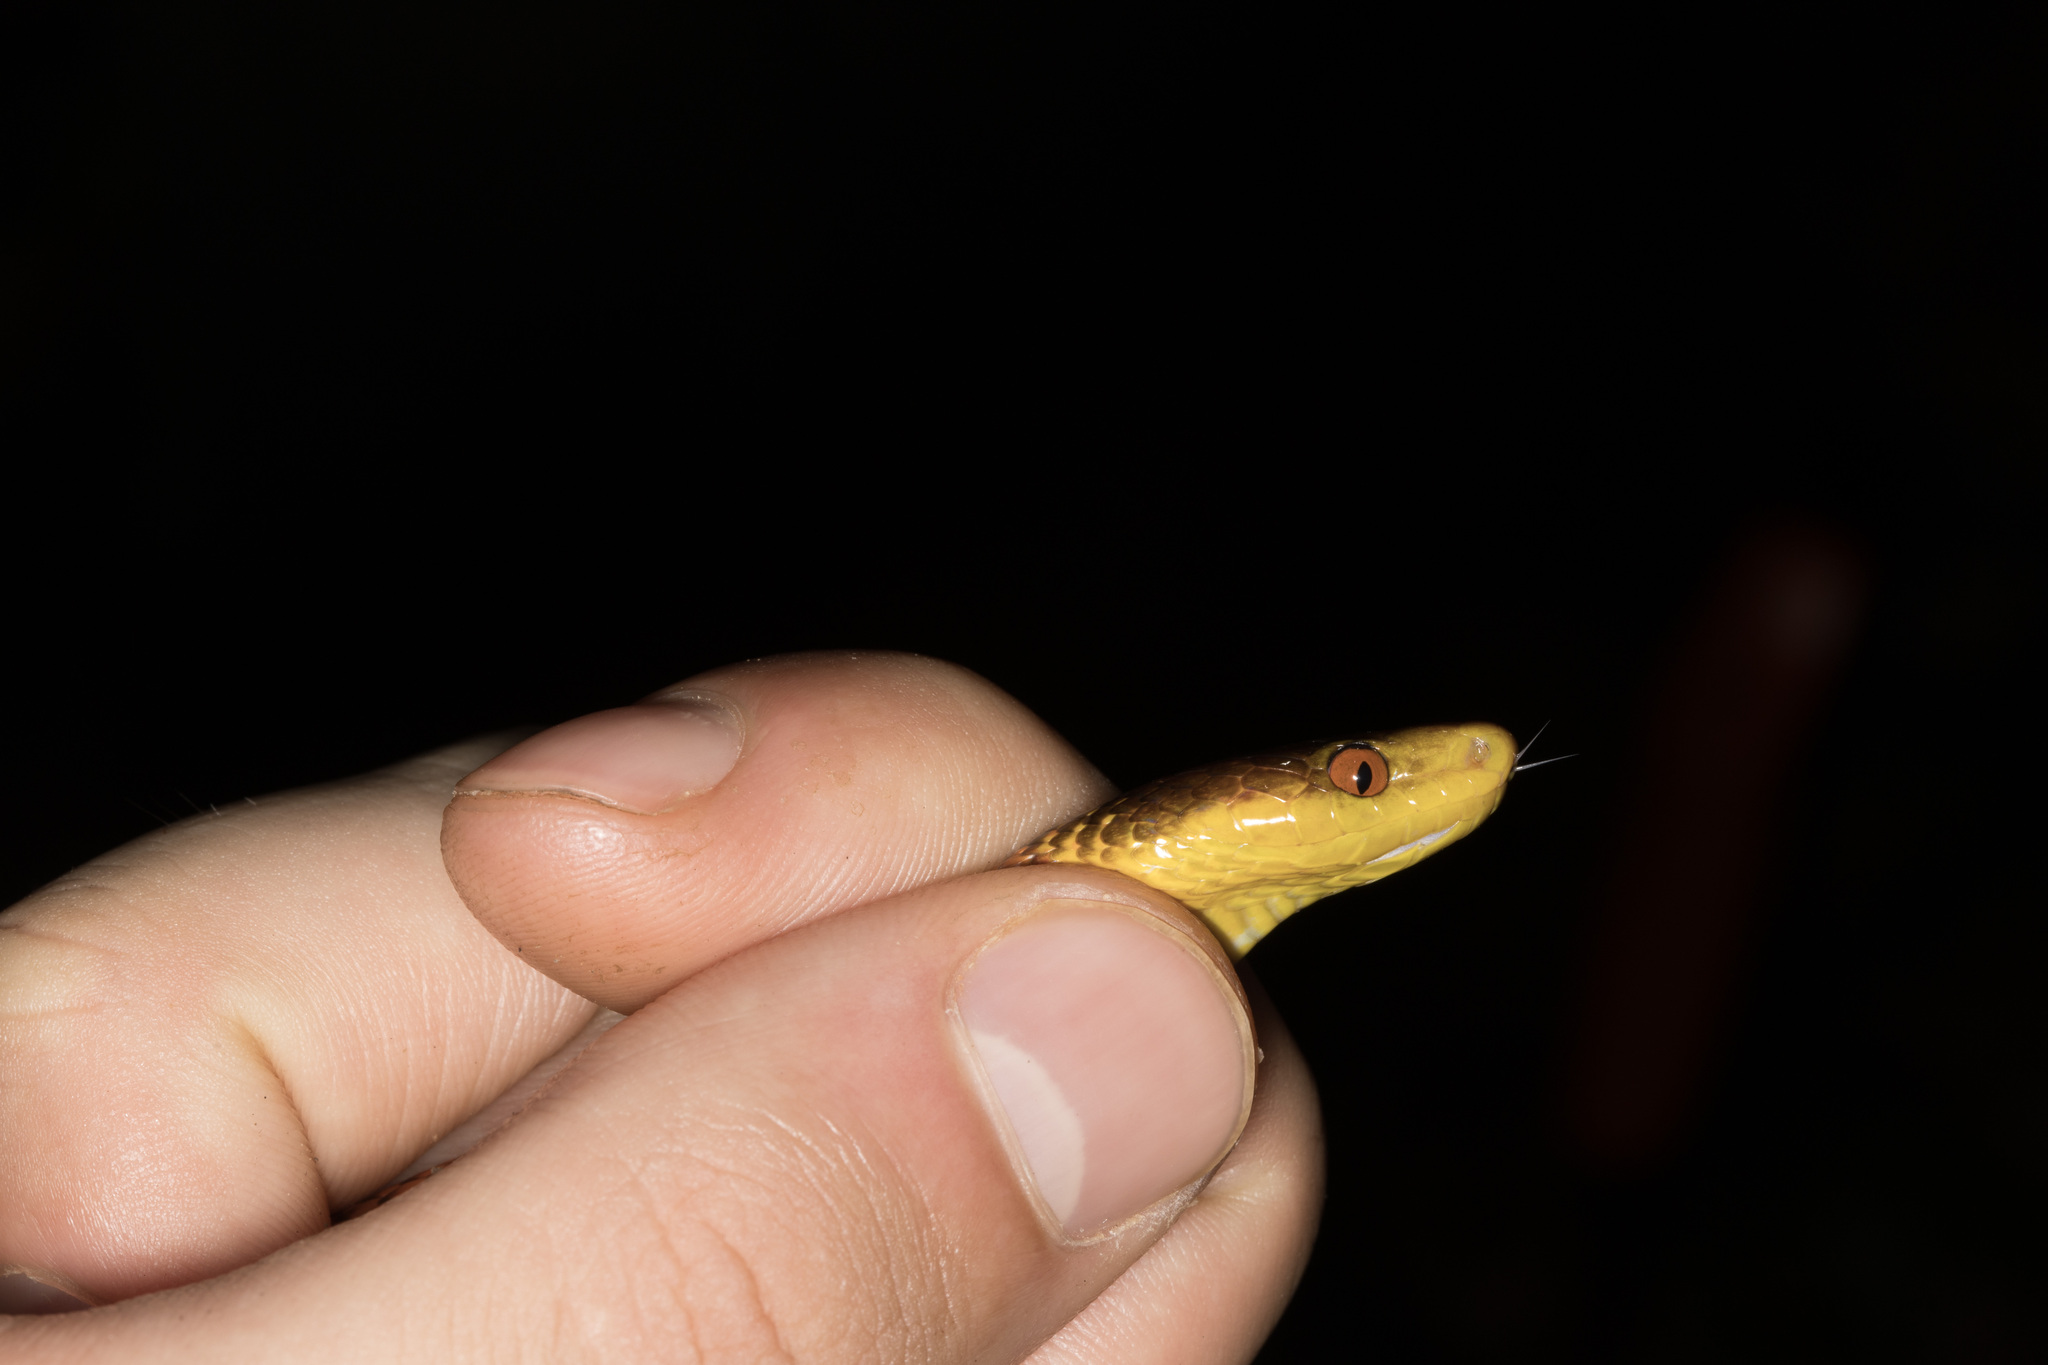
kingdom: Animalia
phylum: Chordata
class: Squamata
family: Colubridae
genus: Oxyrhopus
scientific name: Oxyrhopus occipitalis
